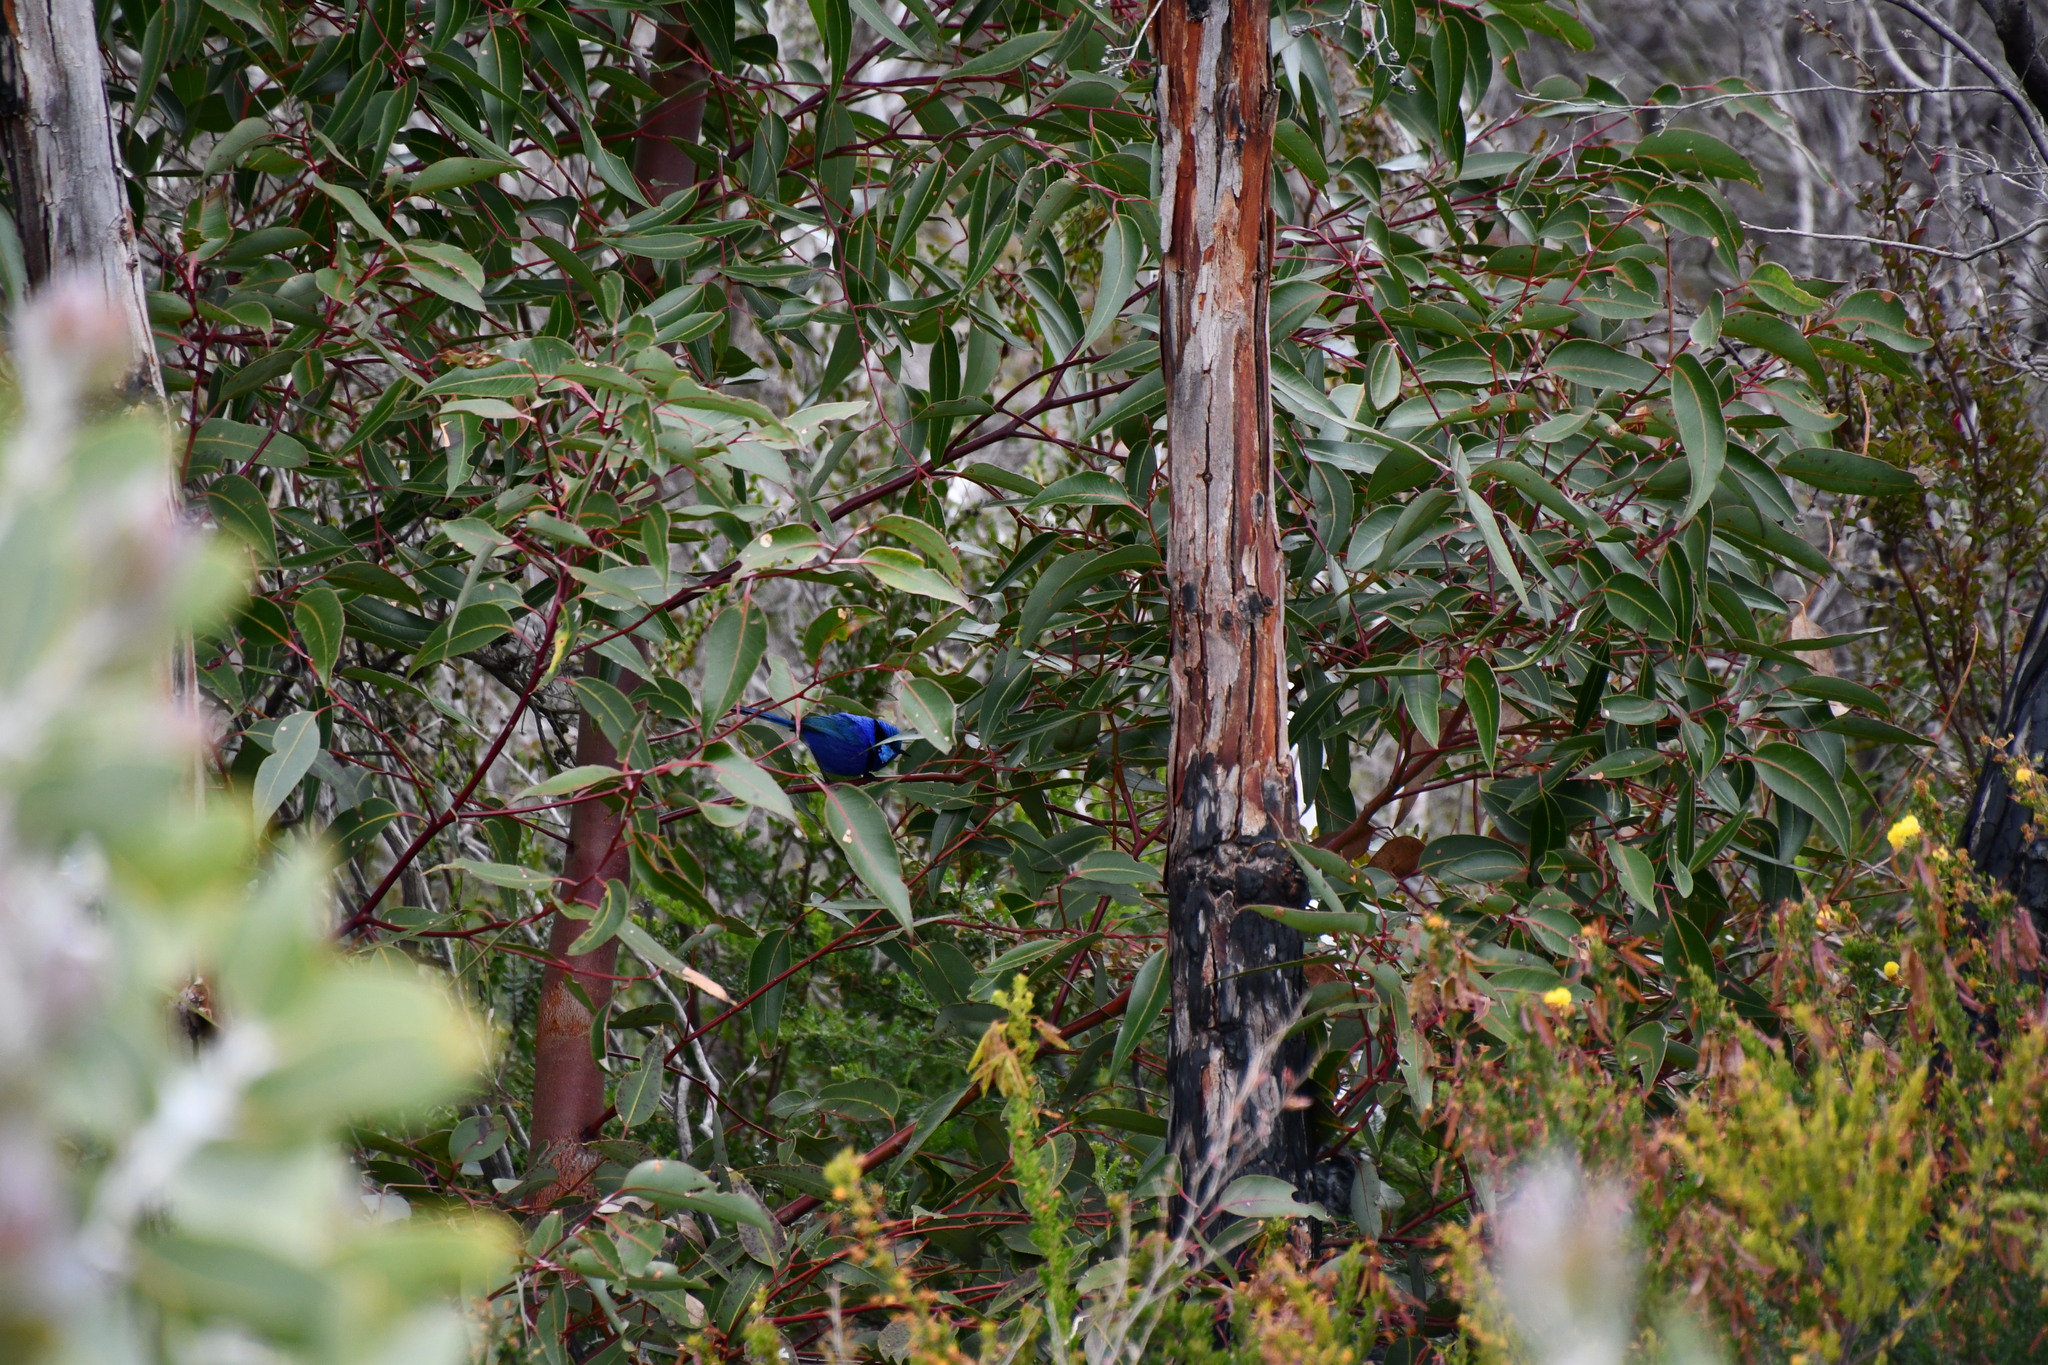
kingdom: Animalia
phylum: Chordata
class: Aves
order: Passeriformes
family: Maluridae
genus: Malurus
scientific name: Malurus splendens
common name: Splendid fairywren
